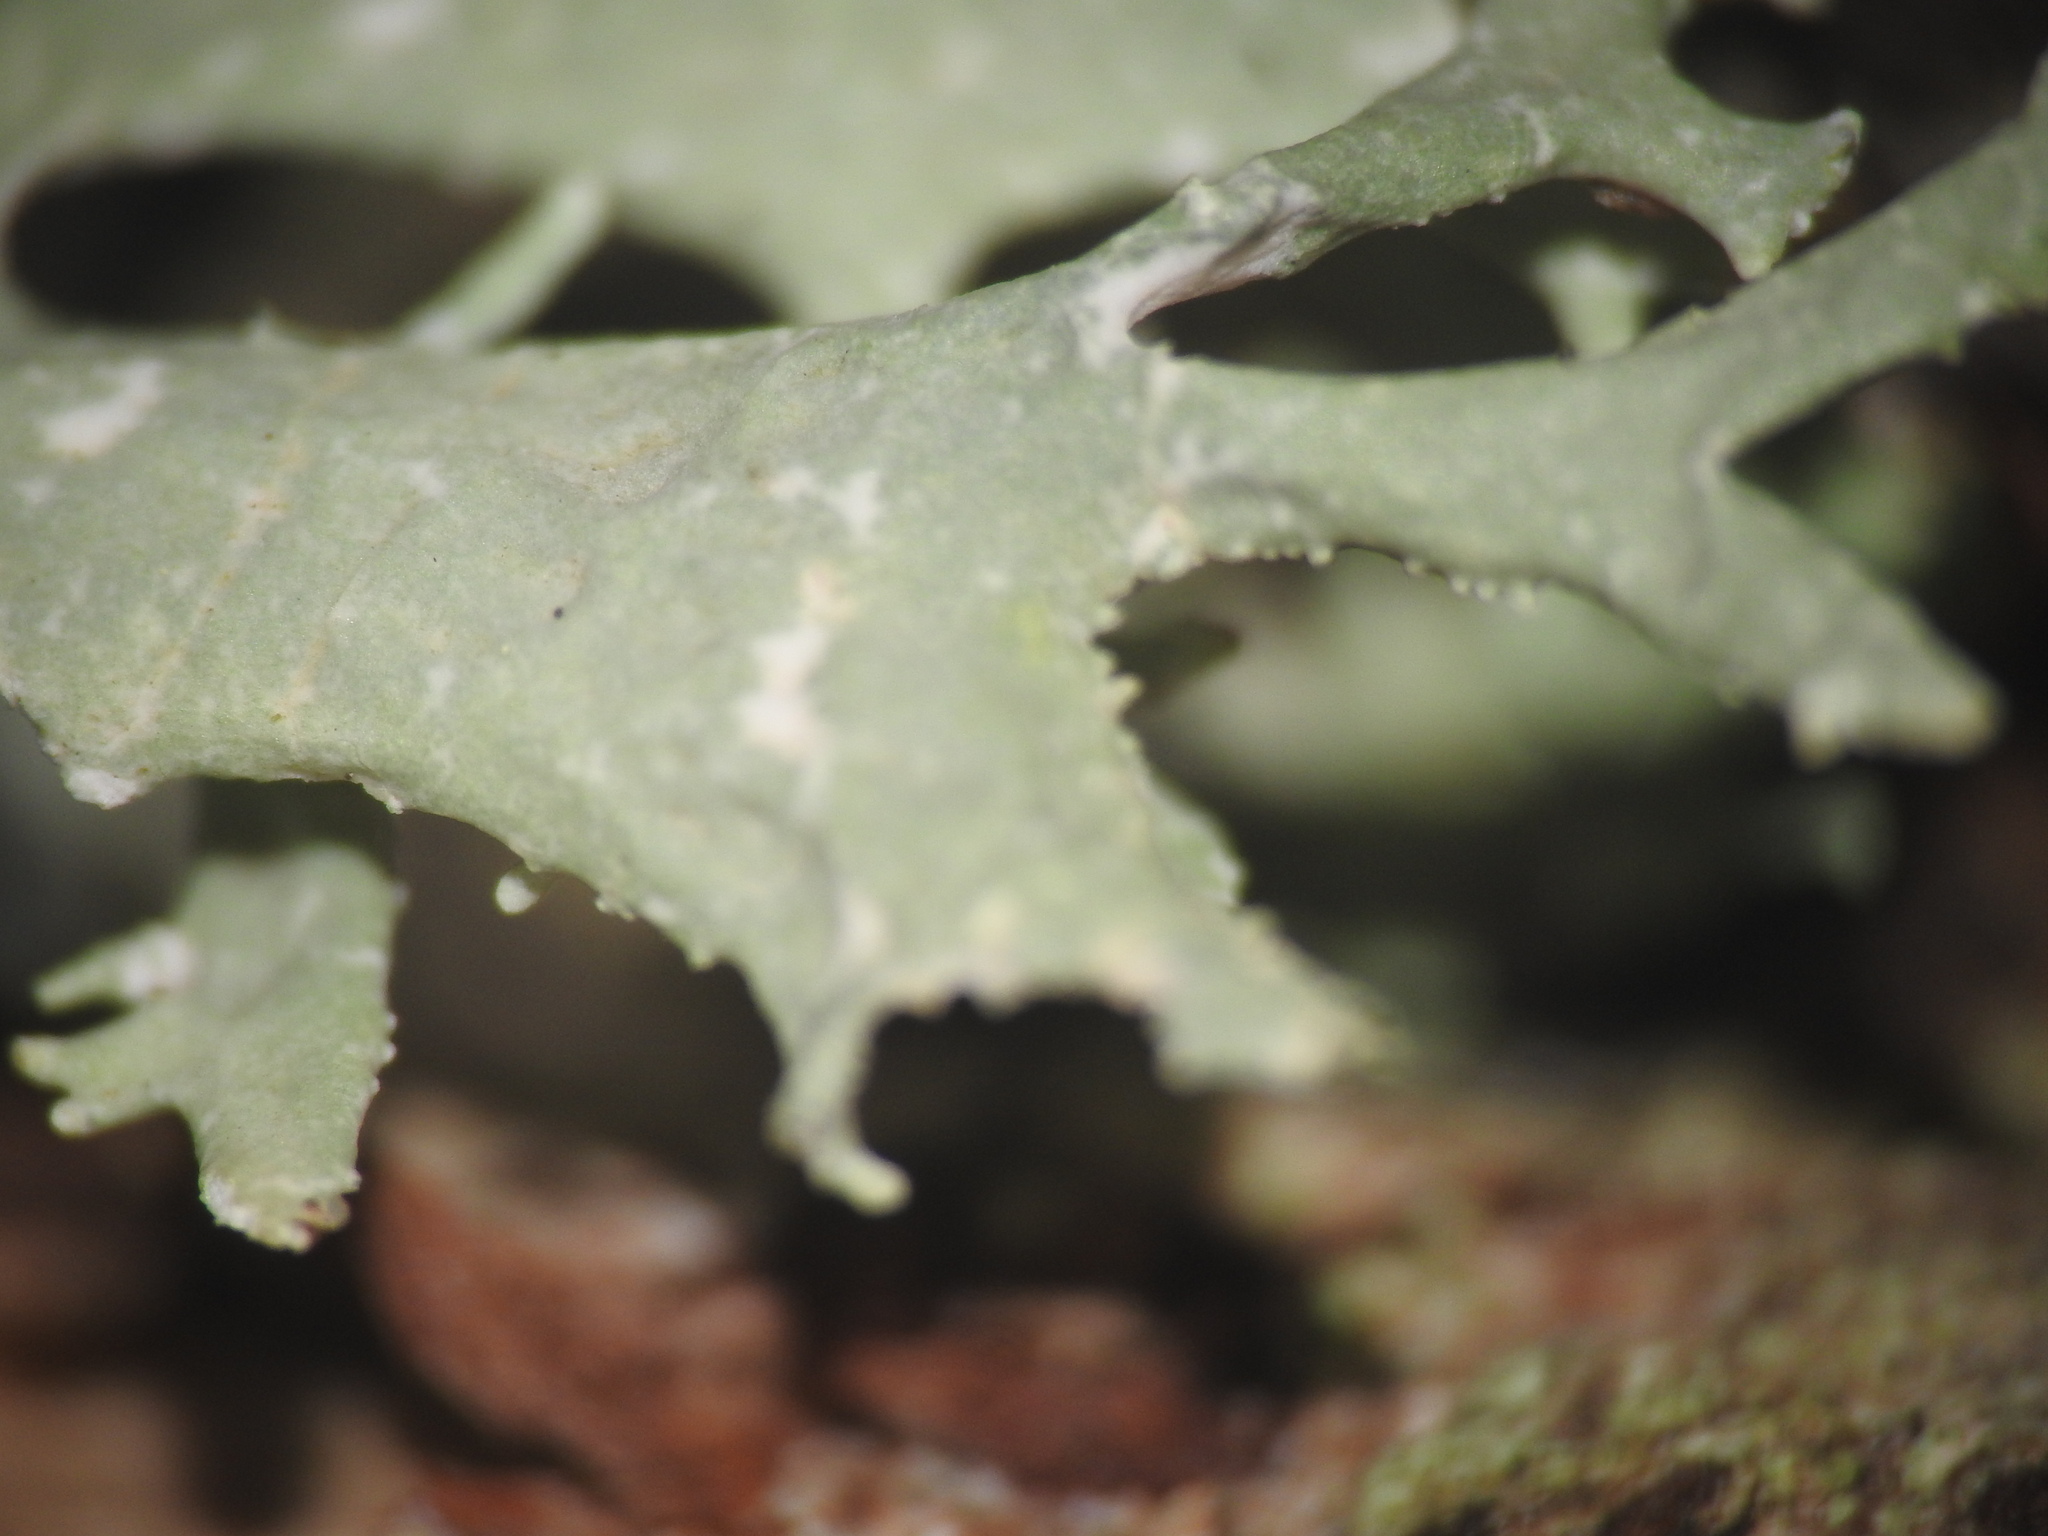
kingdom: Fungi
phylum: Ascomycota
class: Lecanoromycetes
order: Lecanorales
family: Parmeliaceae
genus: Evernia
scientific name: Evernia prunastri
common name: Oak moss
